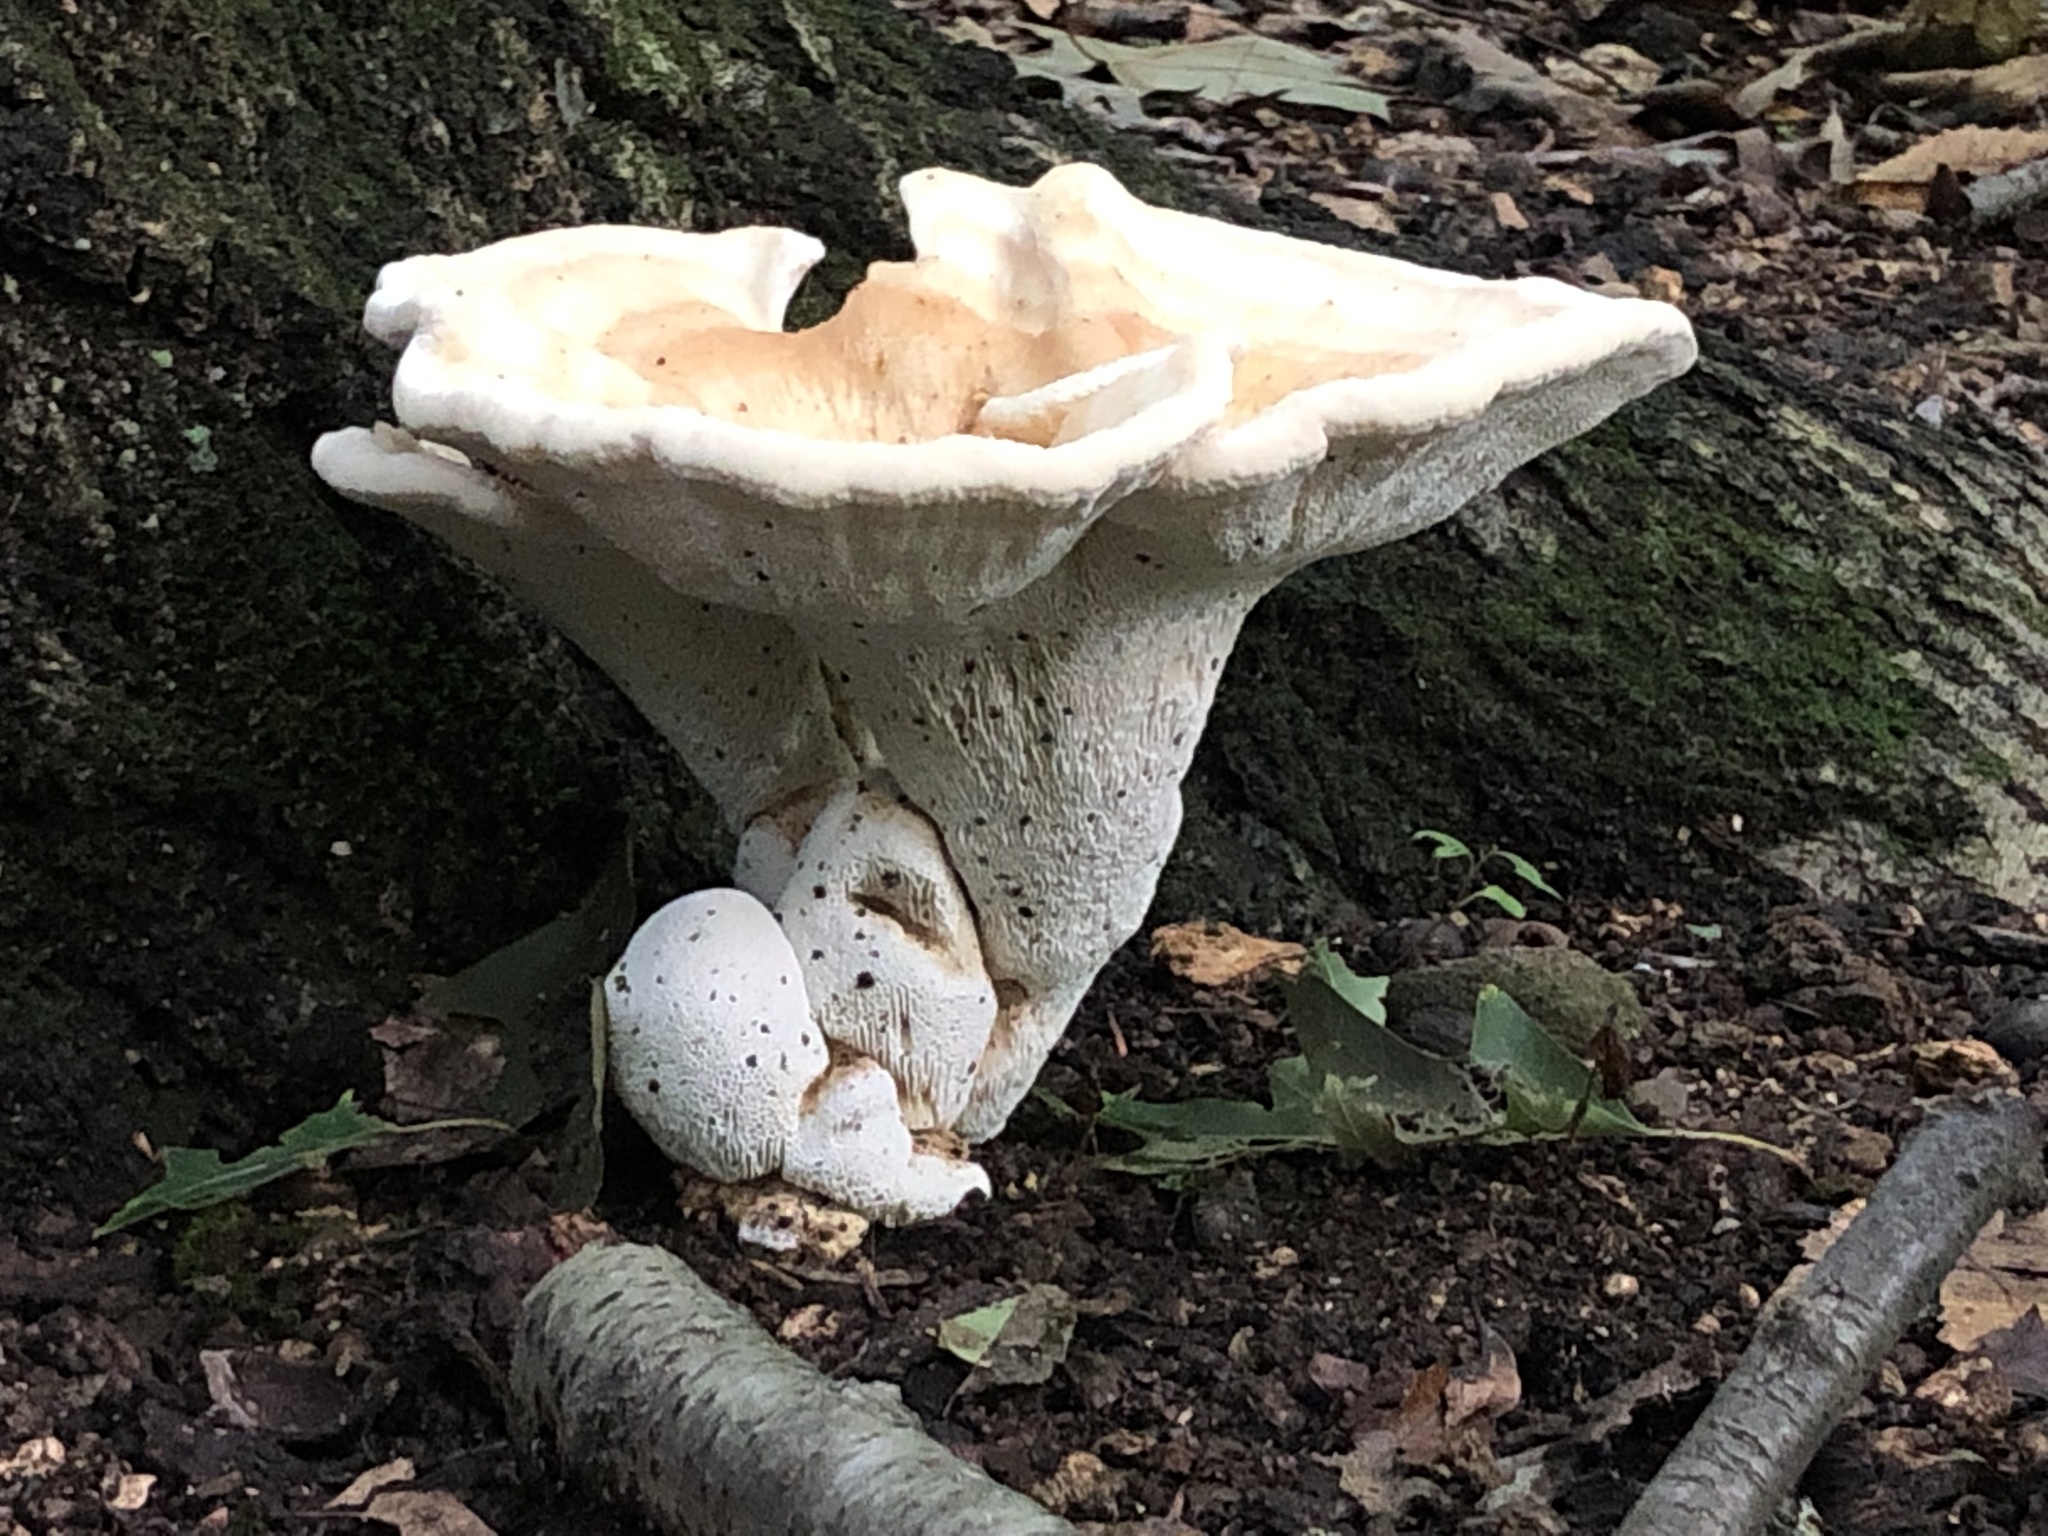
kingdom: Fungi
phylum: Basidiomycota
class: Agaricomycetes
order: Russulales
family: Bondarzewiaceae
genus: Bondarzewia
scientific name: Bondarzewia berkeleyi
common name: Berkeley's polypore
